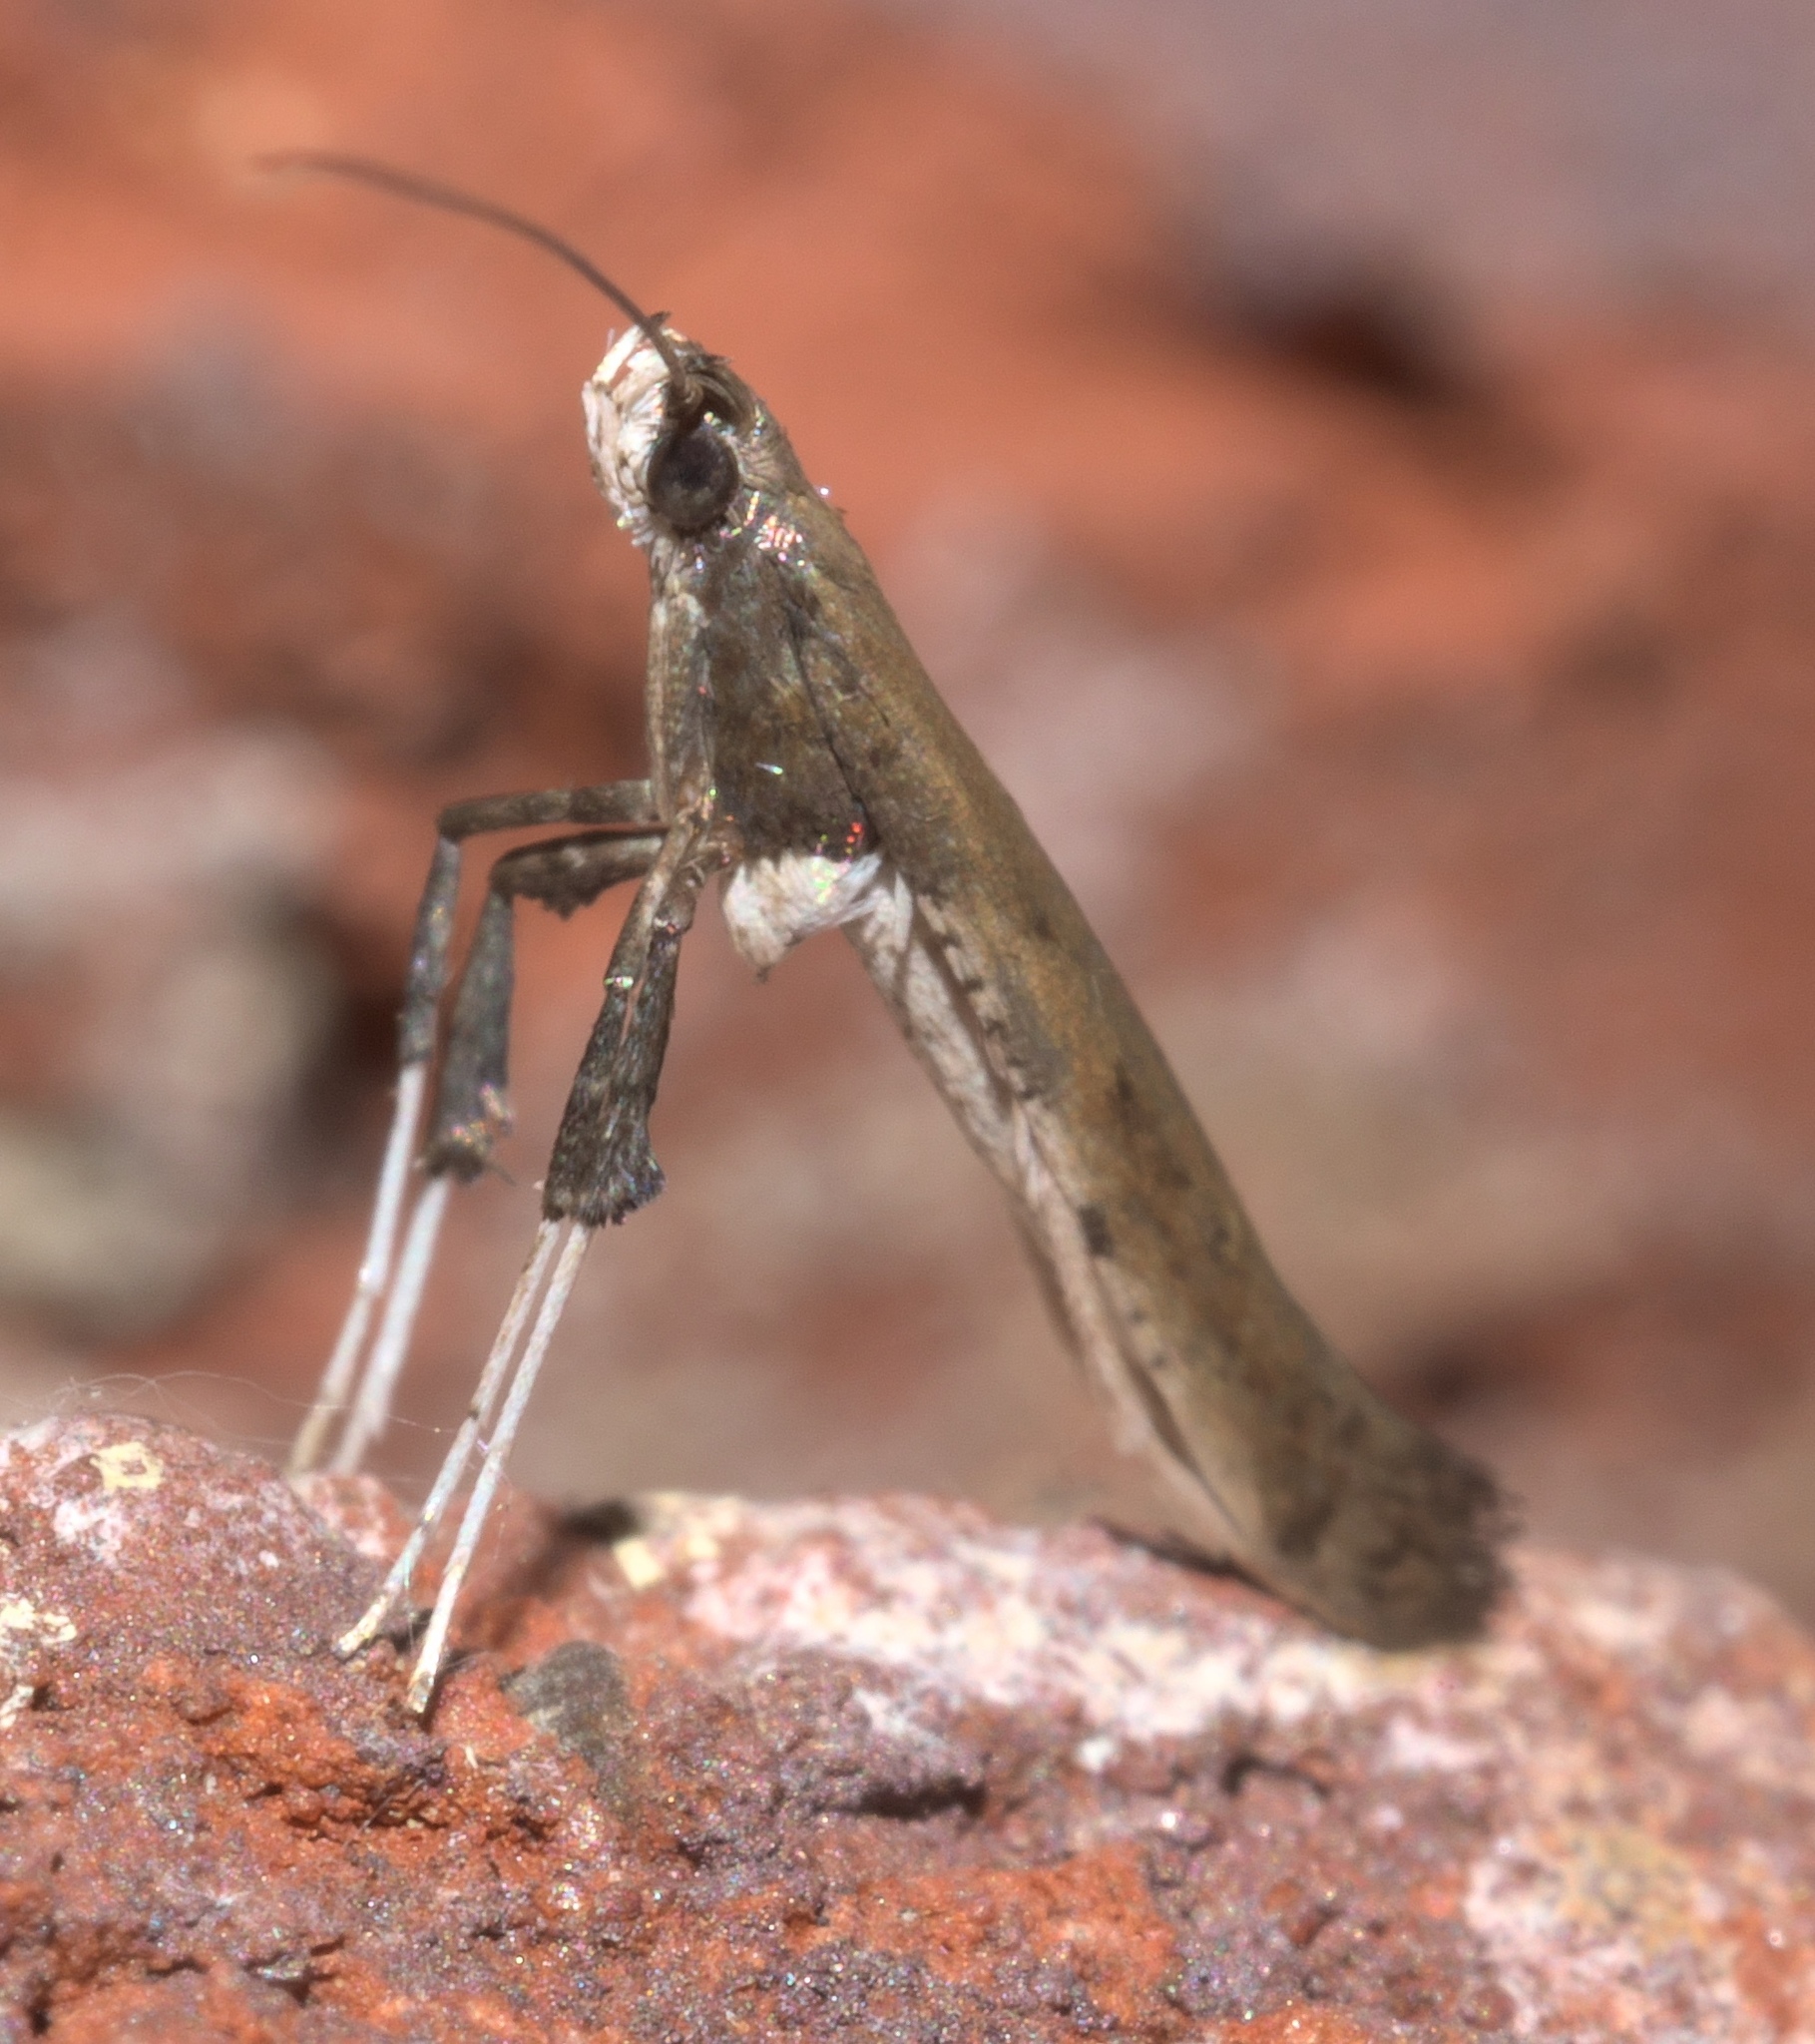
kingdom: Animalia
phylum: Arthropoda
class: Insecta
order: Lepidoptera
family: Gracillariidae
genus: Caloptilia
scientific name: Caloptilia rhoifoliella
